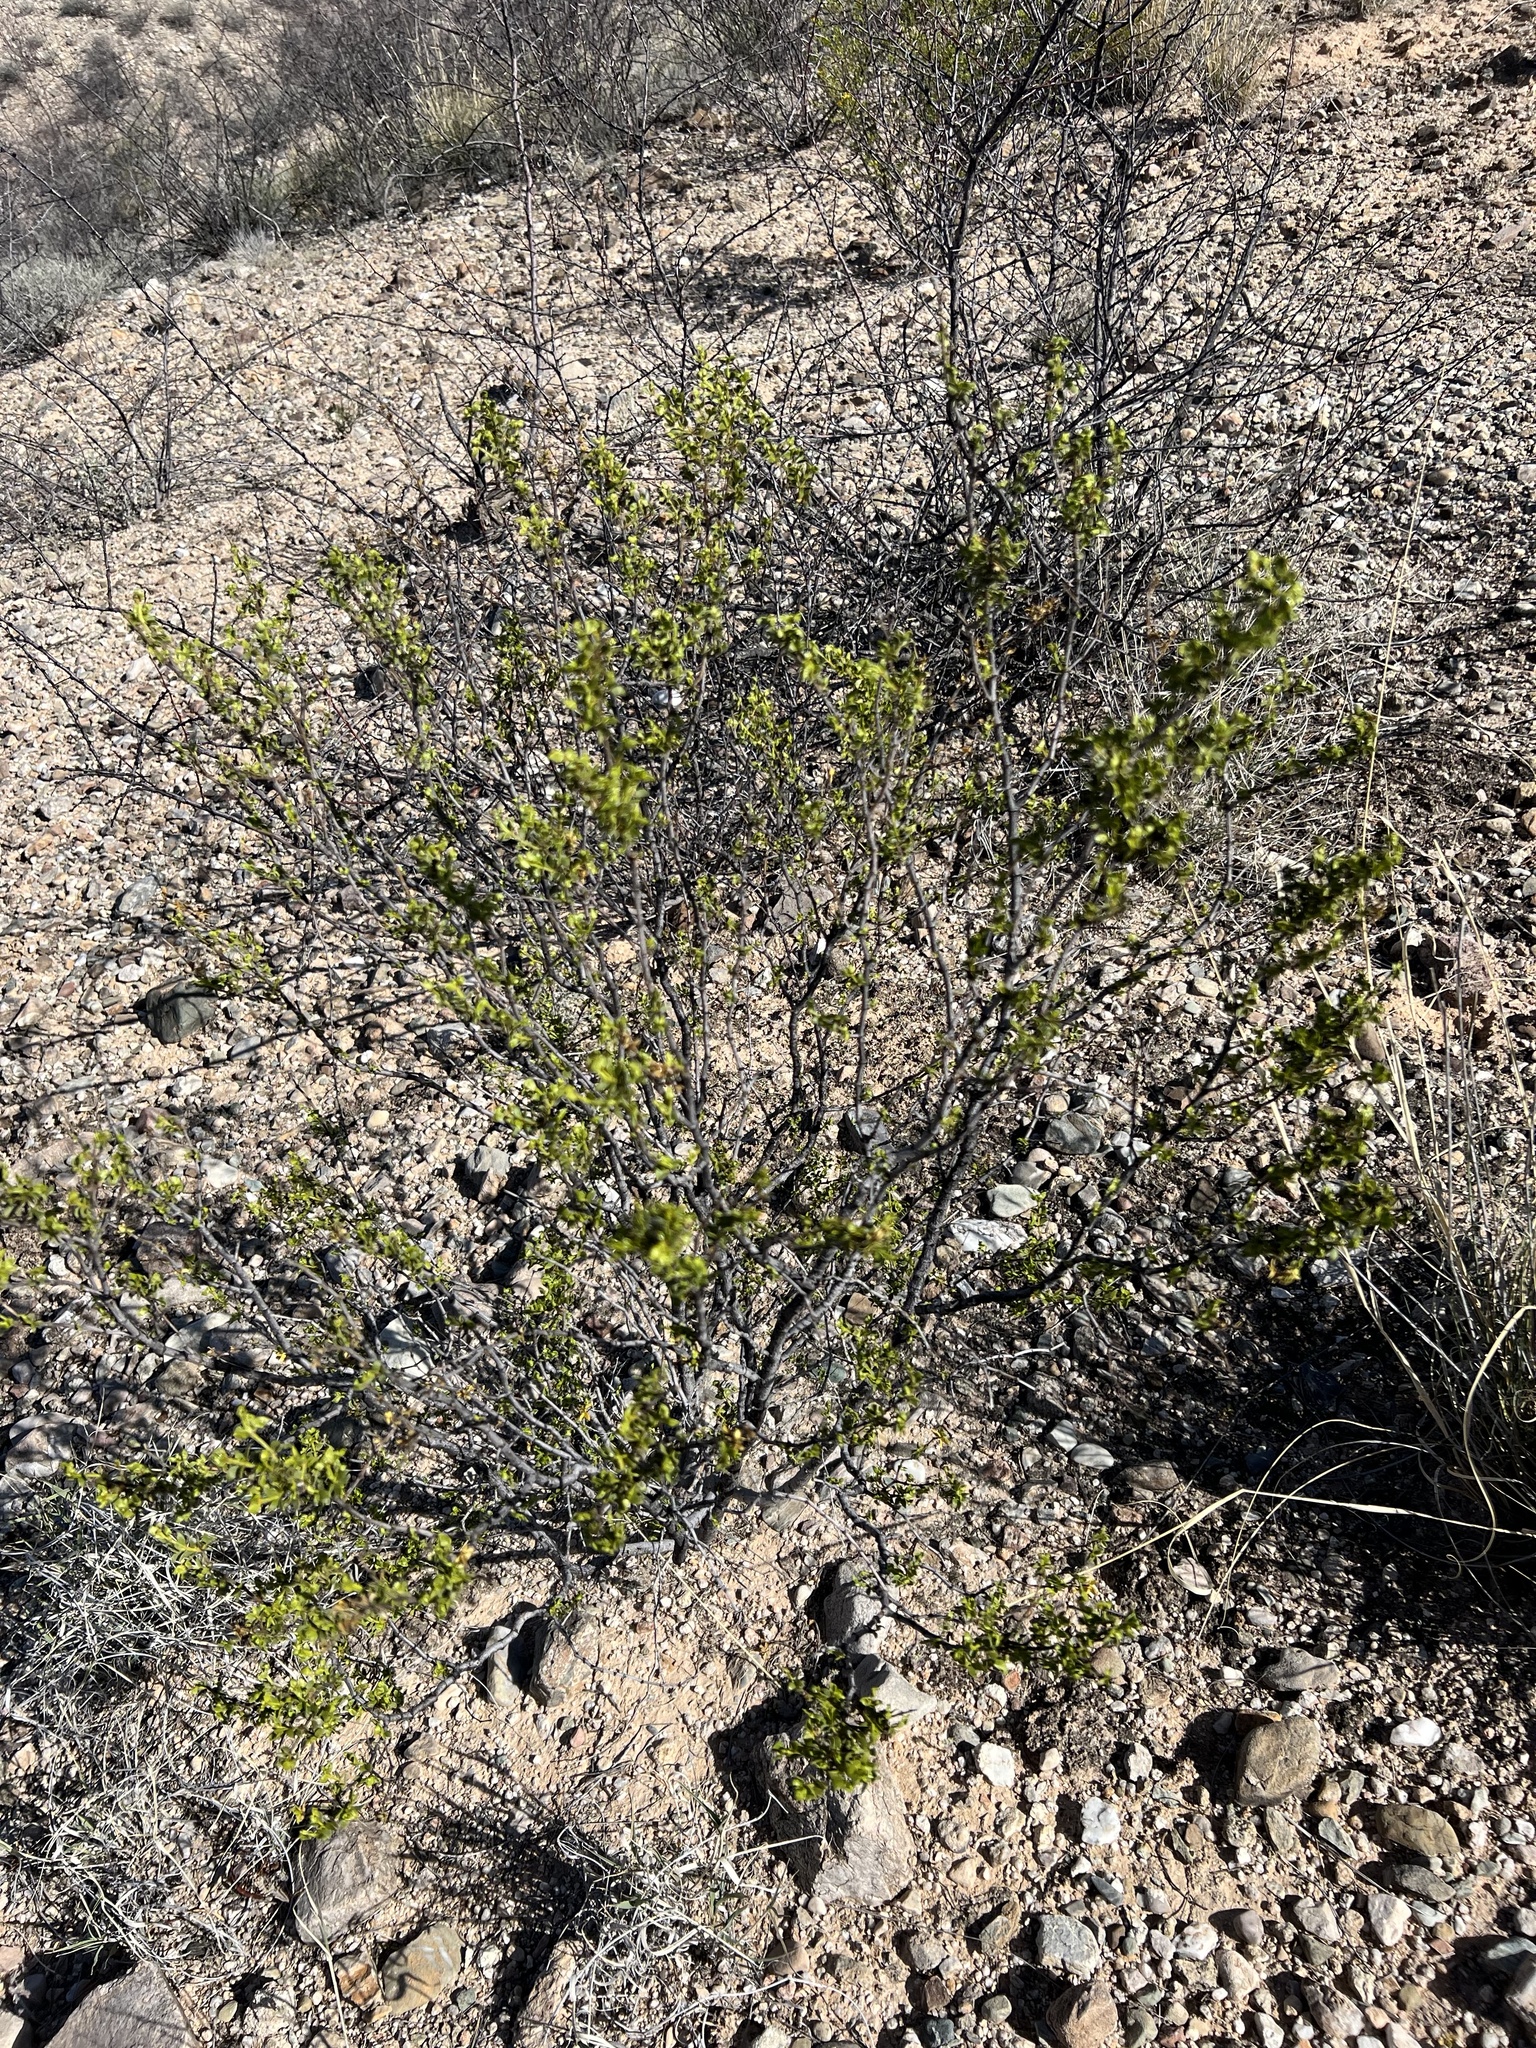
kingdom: Plantae
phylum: Tracheophyta
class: Magnoliopsida
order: Zygophyllales
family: Zygophyllaceae
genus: Larrea
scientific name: Larrea tridentata
